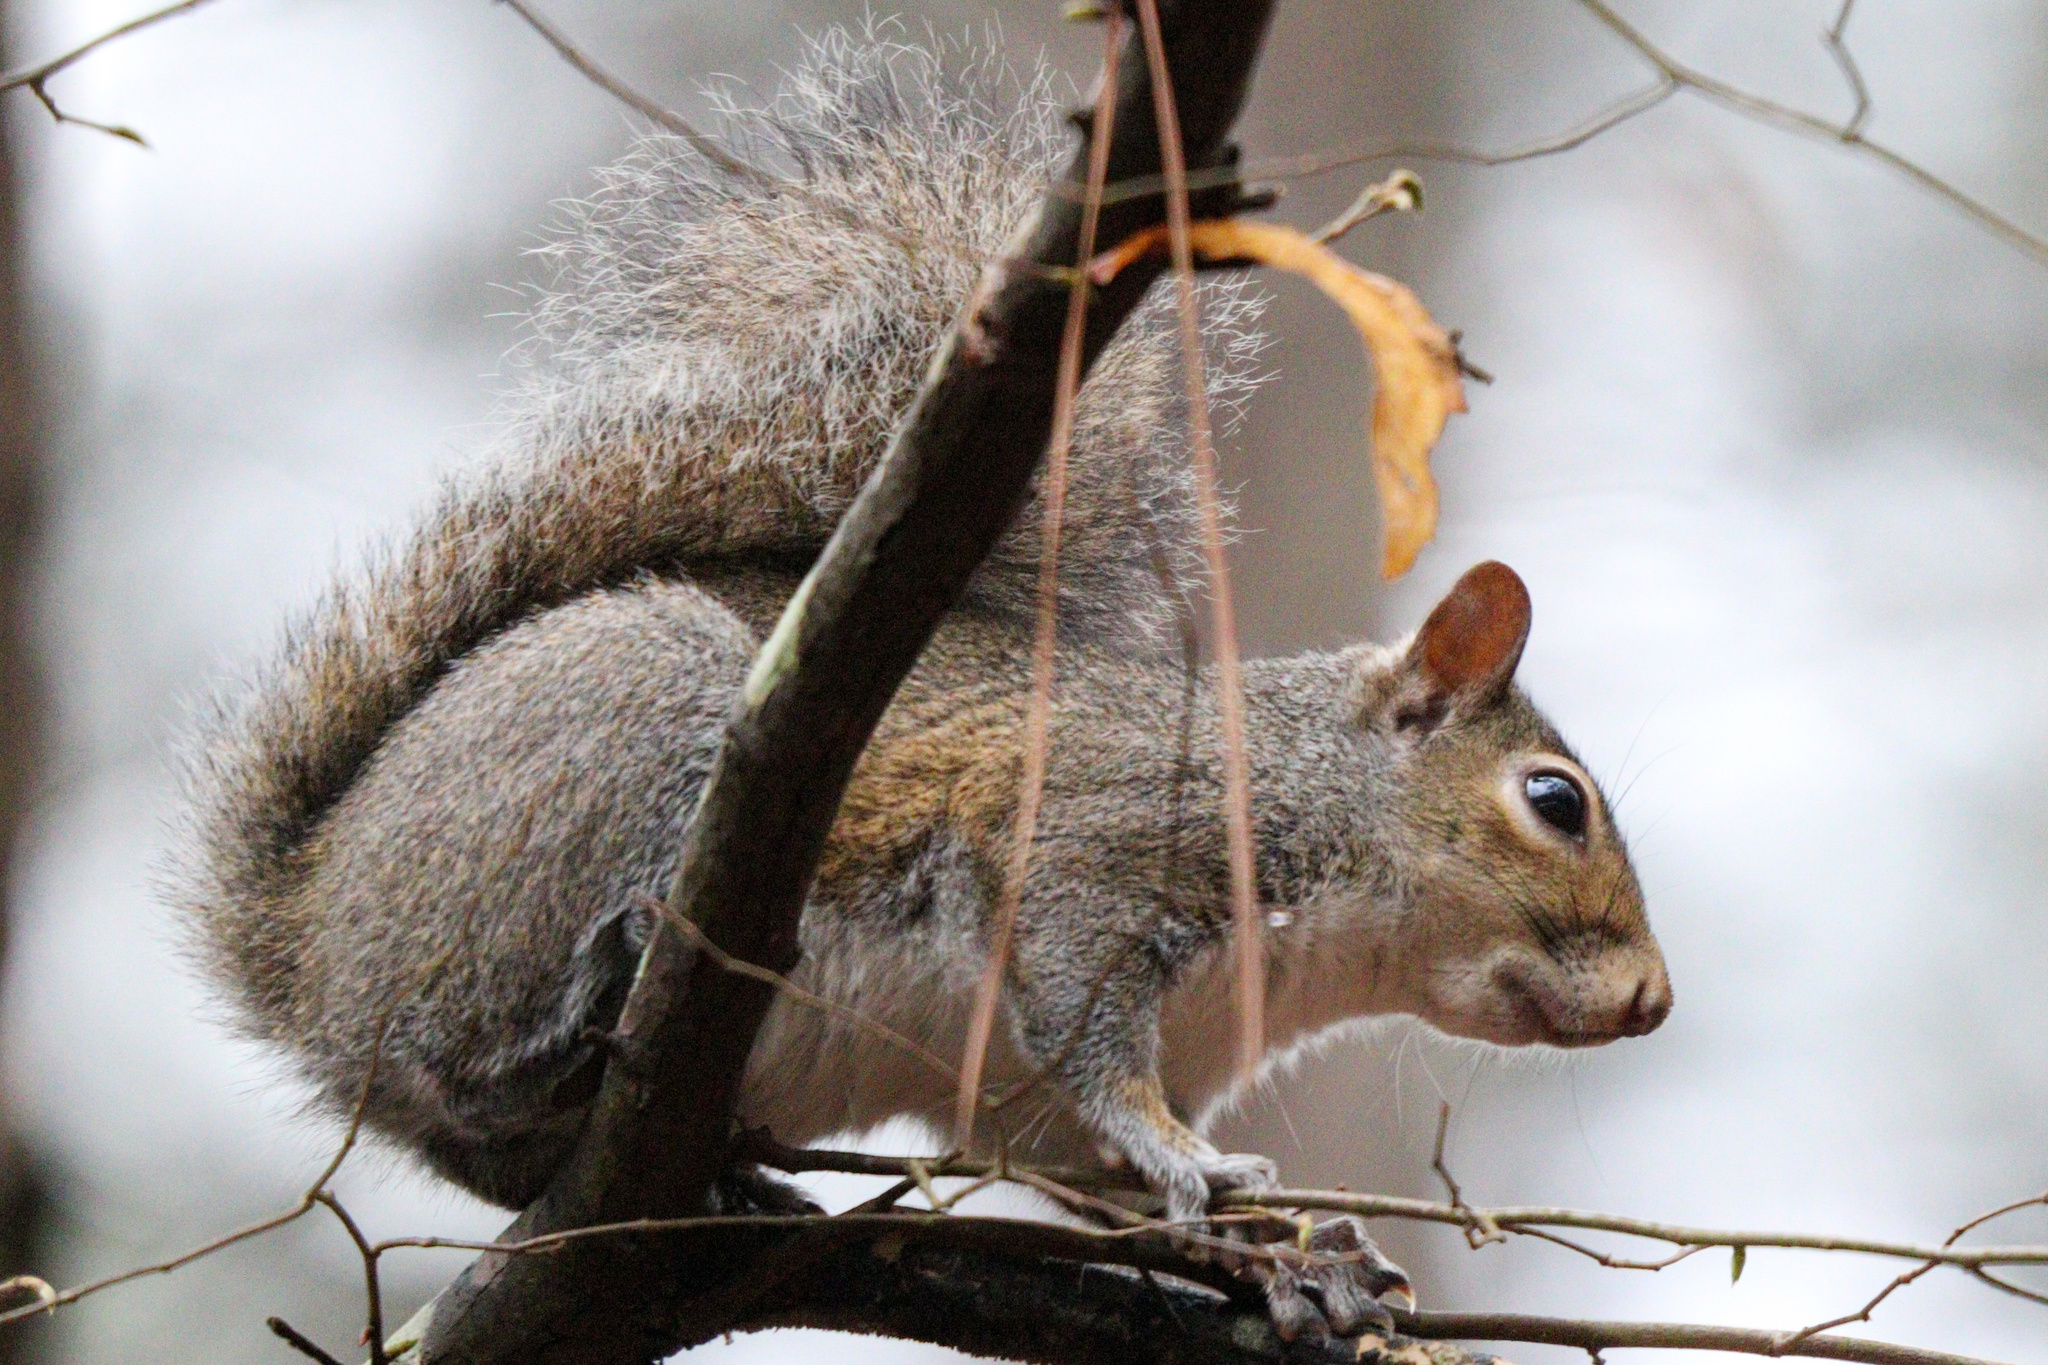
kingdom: Animalia
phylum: Chordata
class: Mammalia
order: Rodentia
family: Sciuridae
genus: Sciurus
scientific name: Sciurus carolinensis
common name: Eastern gray squirrel
